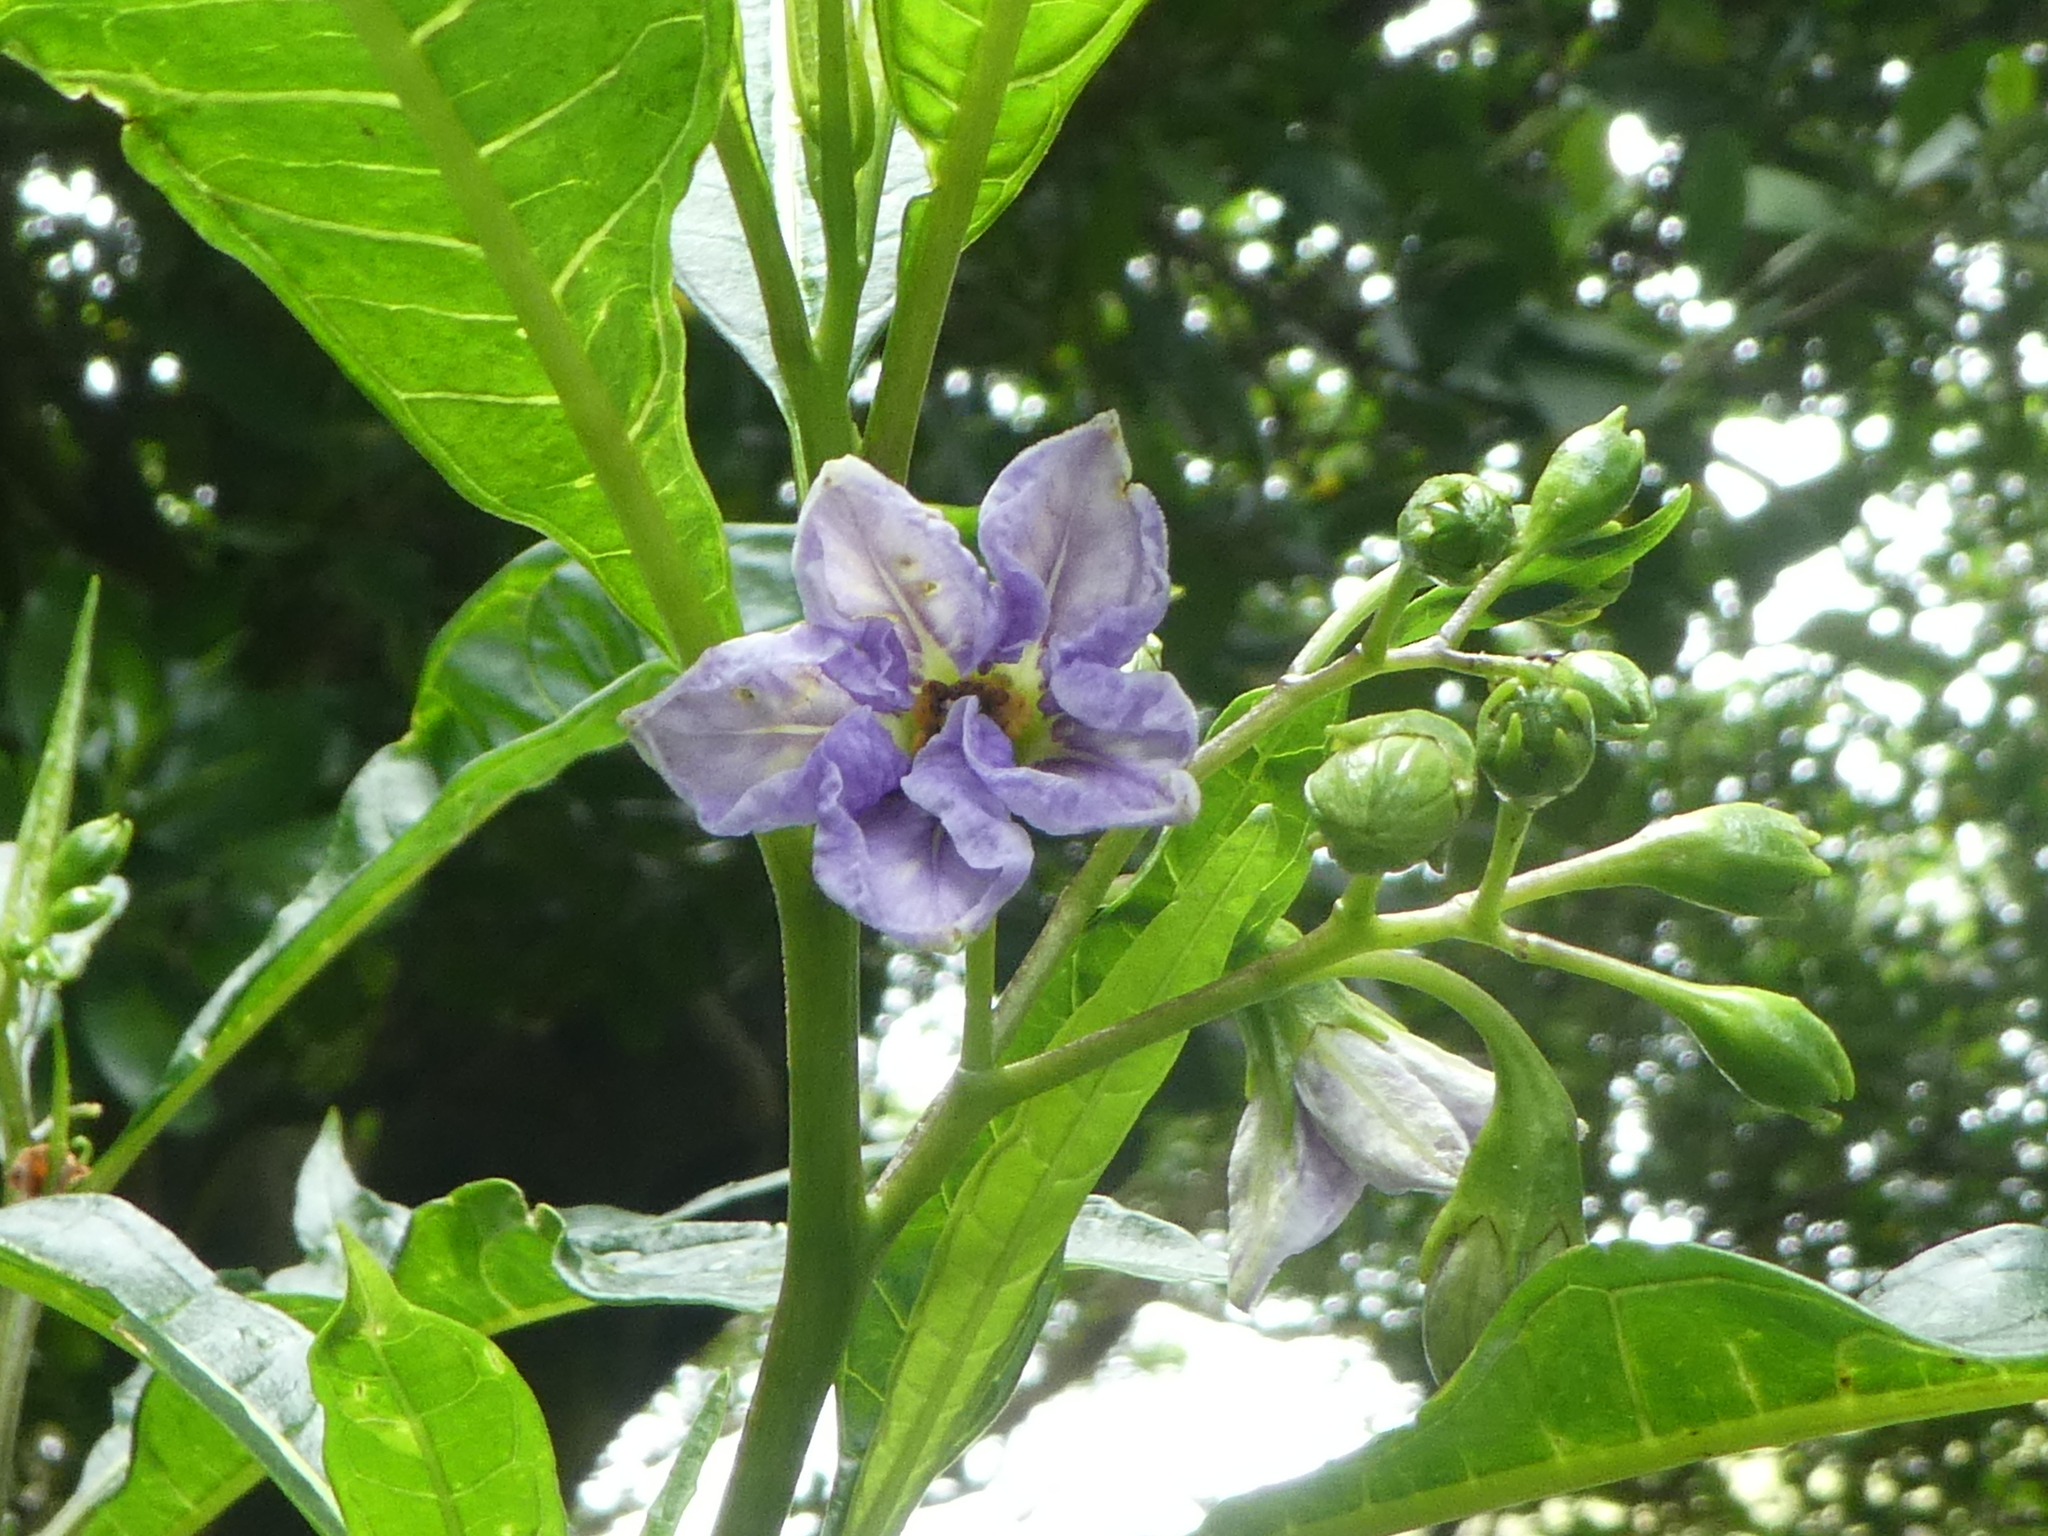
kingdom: Plantae
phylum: Tracheophyta
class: Magnoliopsida
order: Solanales
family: Solanaceae
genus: Solanum
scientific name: Solanum aviculare
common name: New zealand nightshade
